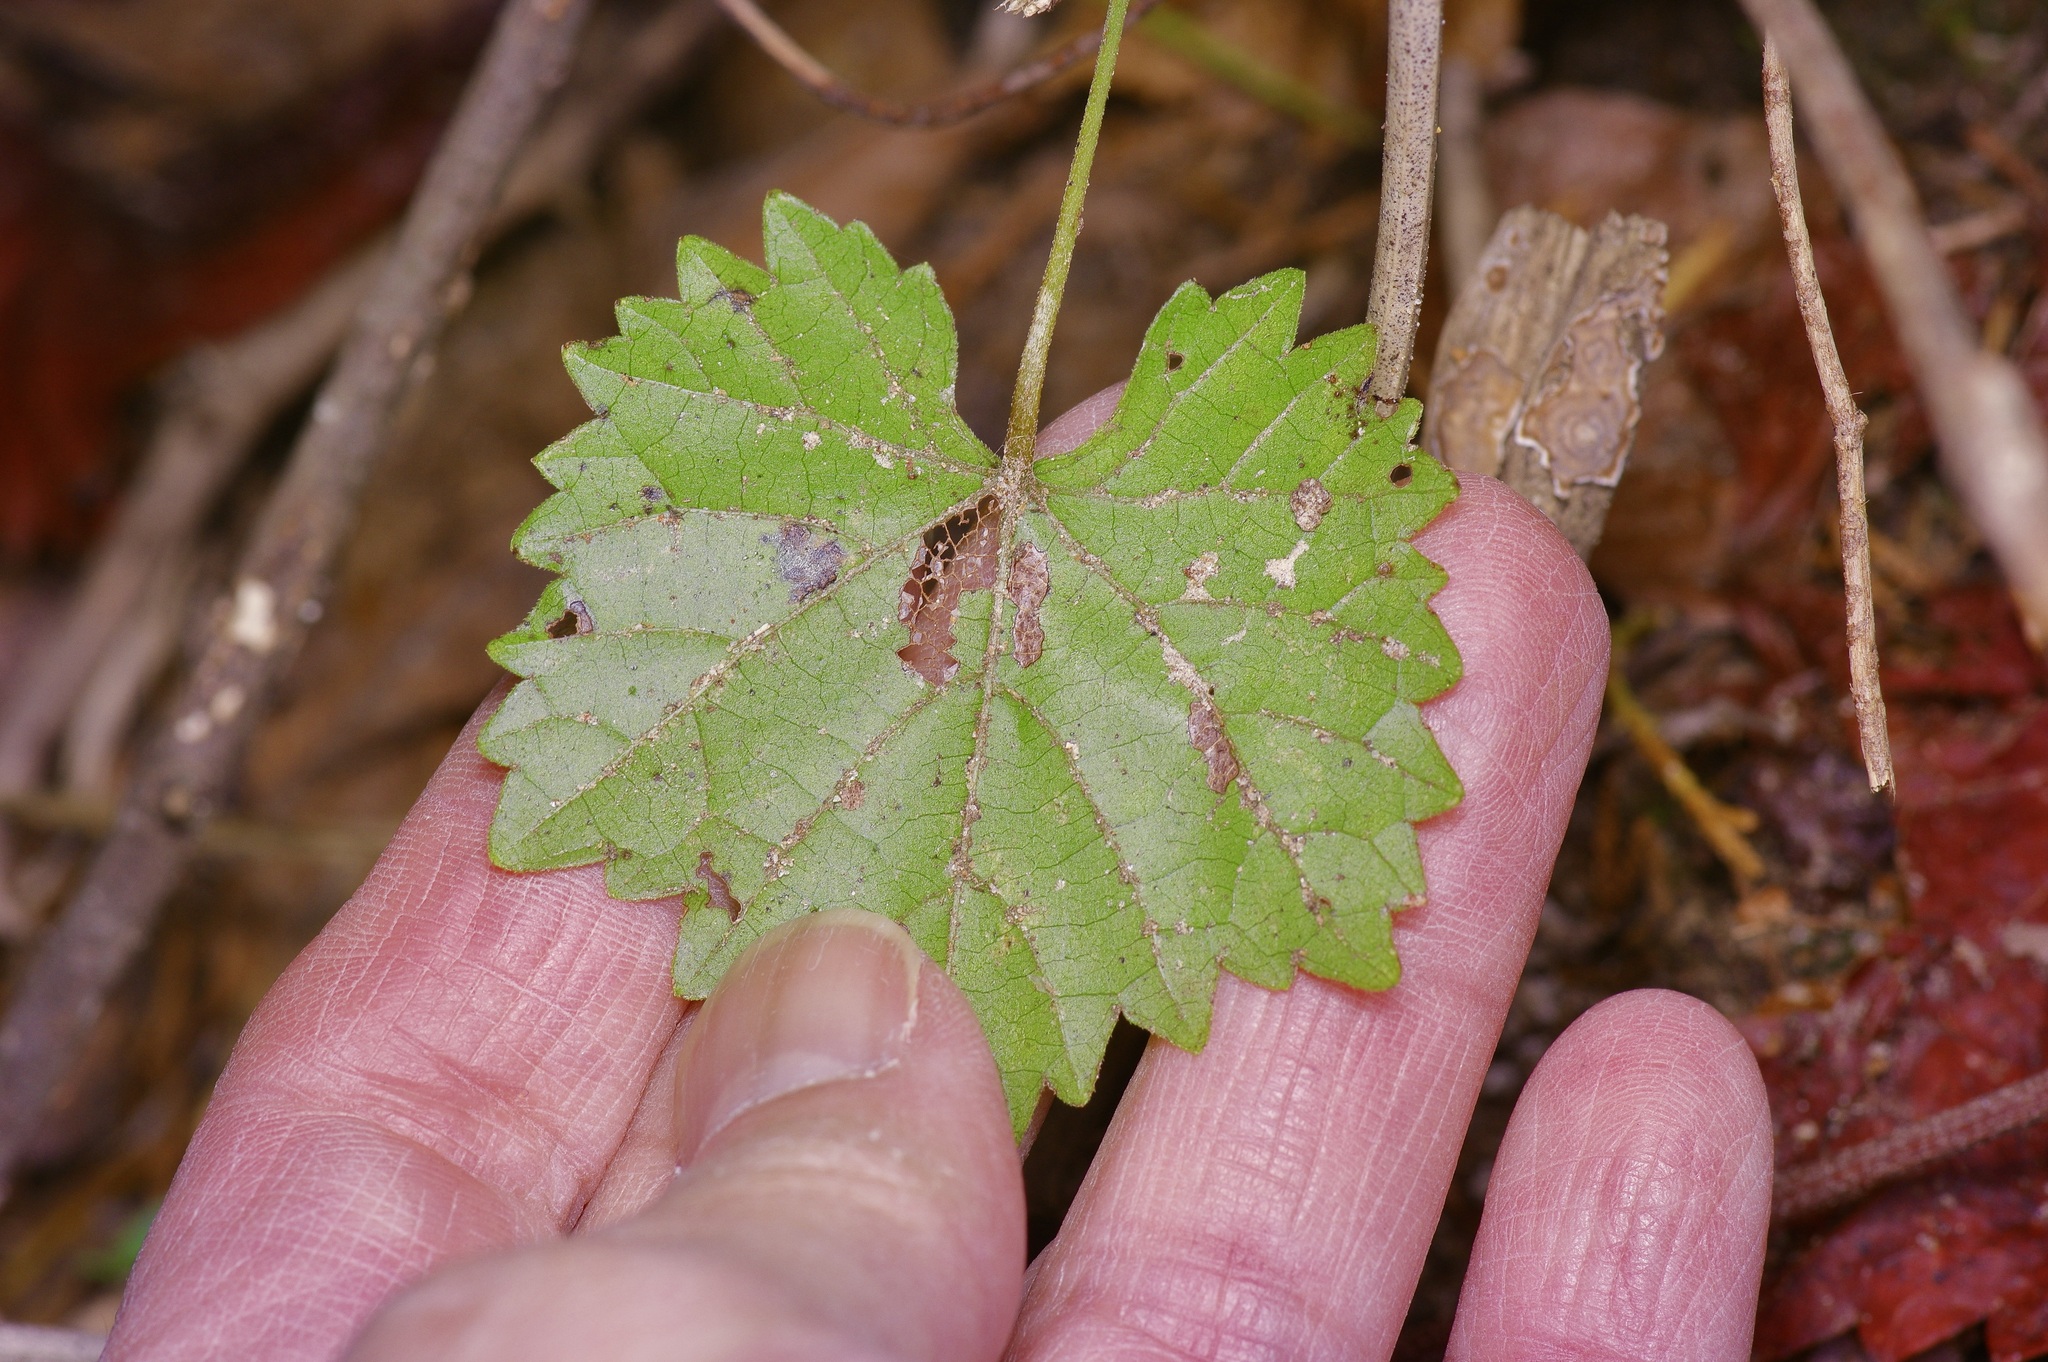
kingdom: Plantae
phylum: Tracheophyta
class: Magnoliopsida
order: Vitales
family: Vitaceae
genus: Vitis
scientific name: Vitis rotundifolia
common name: Muscadine grape
